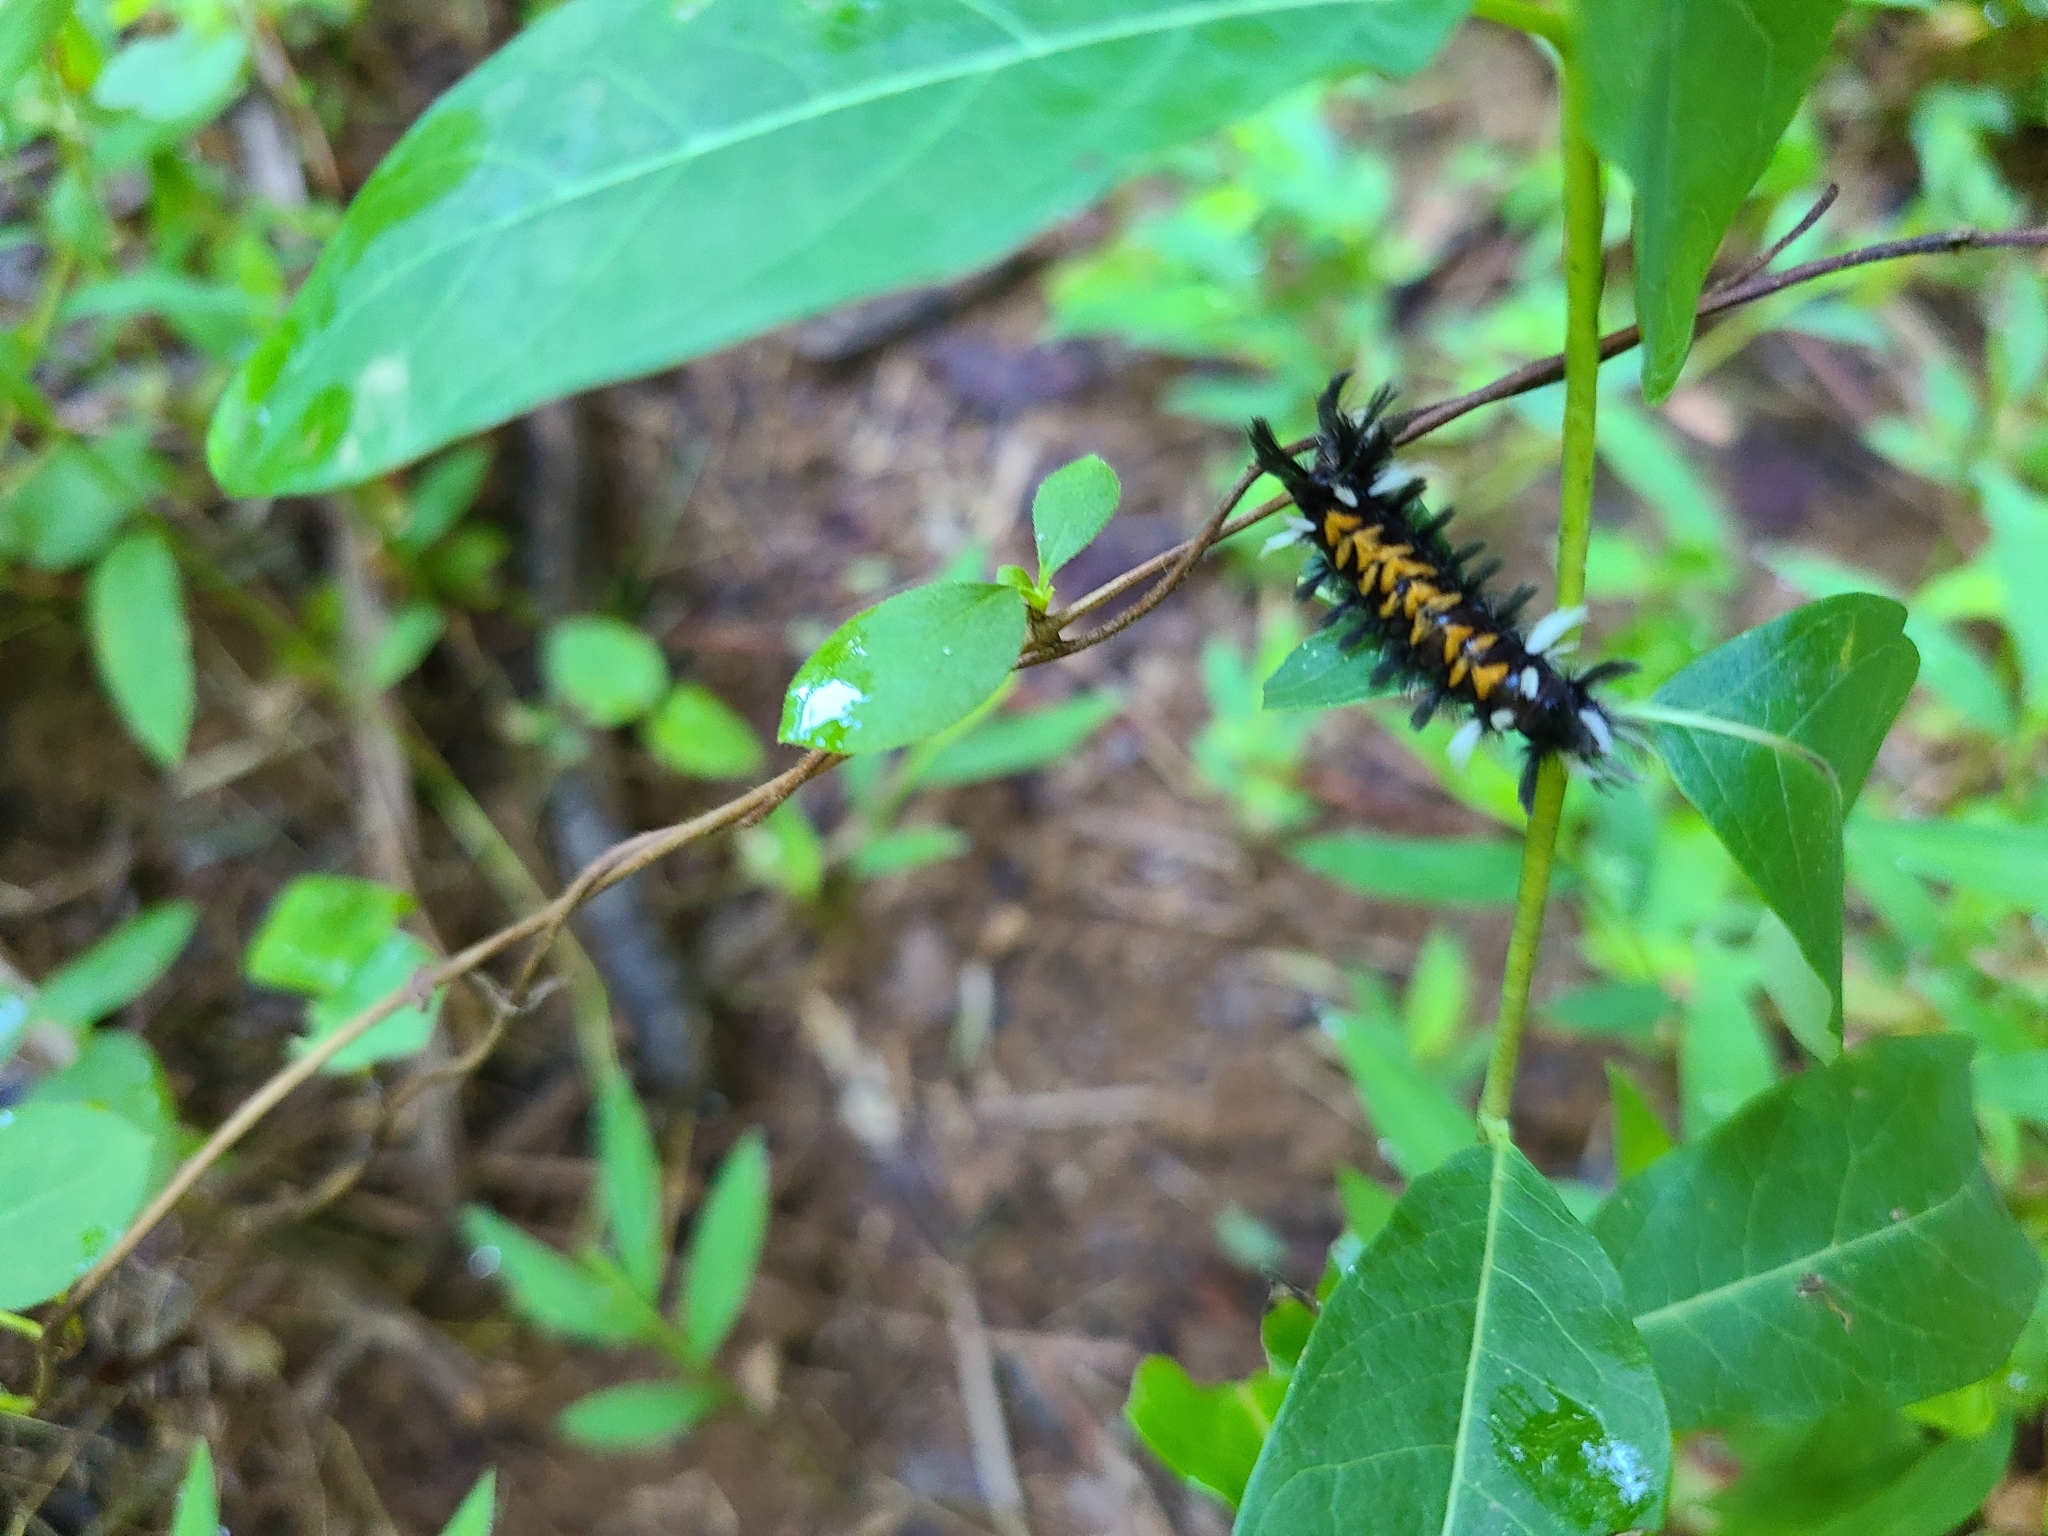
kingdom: Animalia
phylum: Arthropoda
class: Insecta
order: Lepidoptera
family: Erebidae
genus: Euchaetes
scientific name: Euchaetes egle
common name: Milkweed tussock moth
